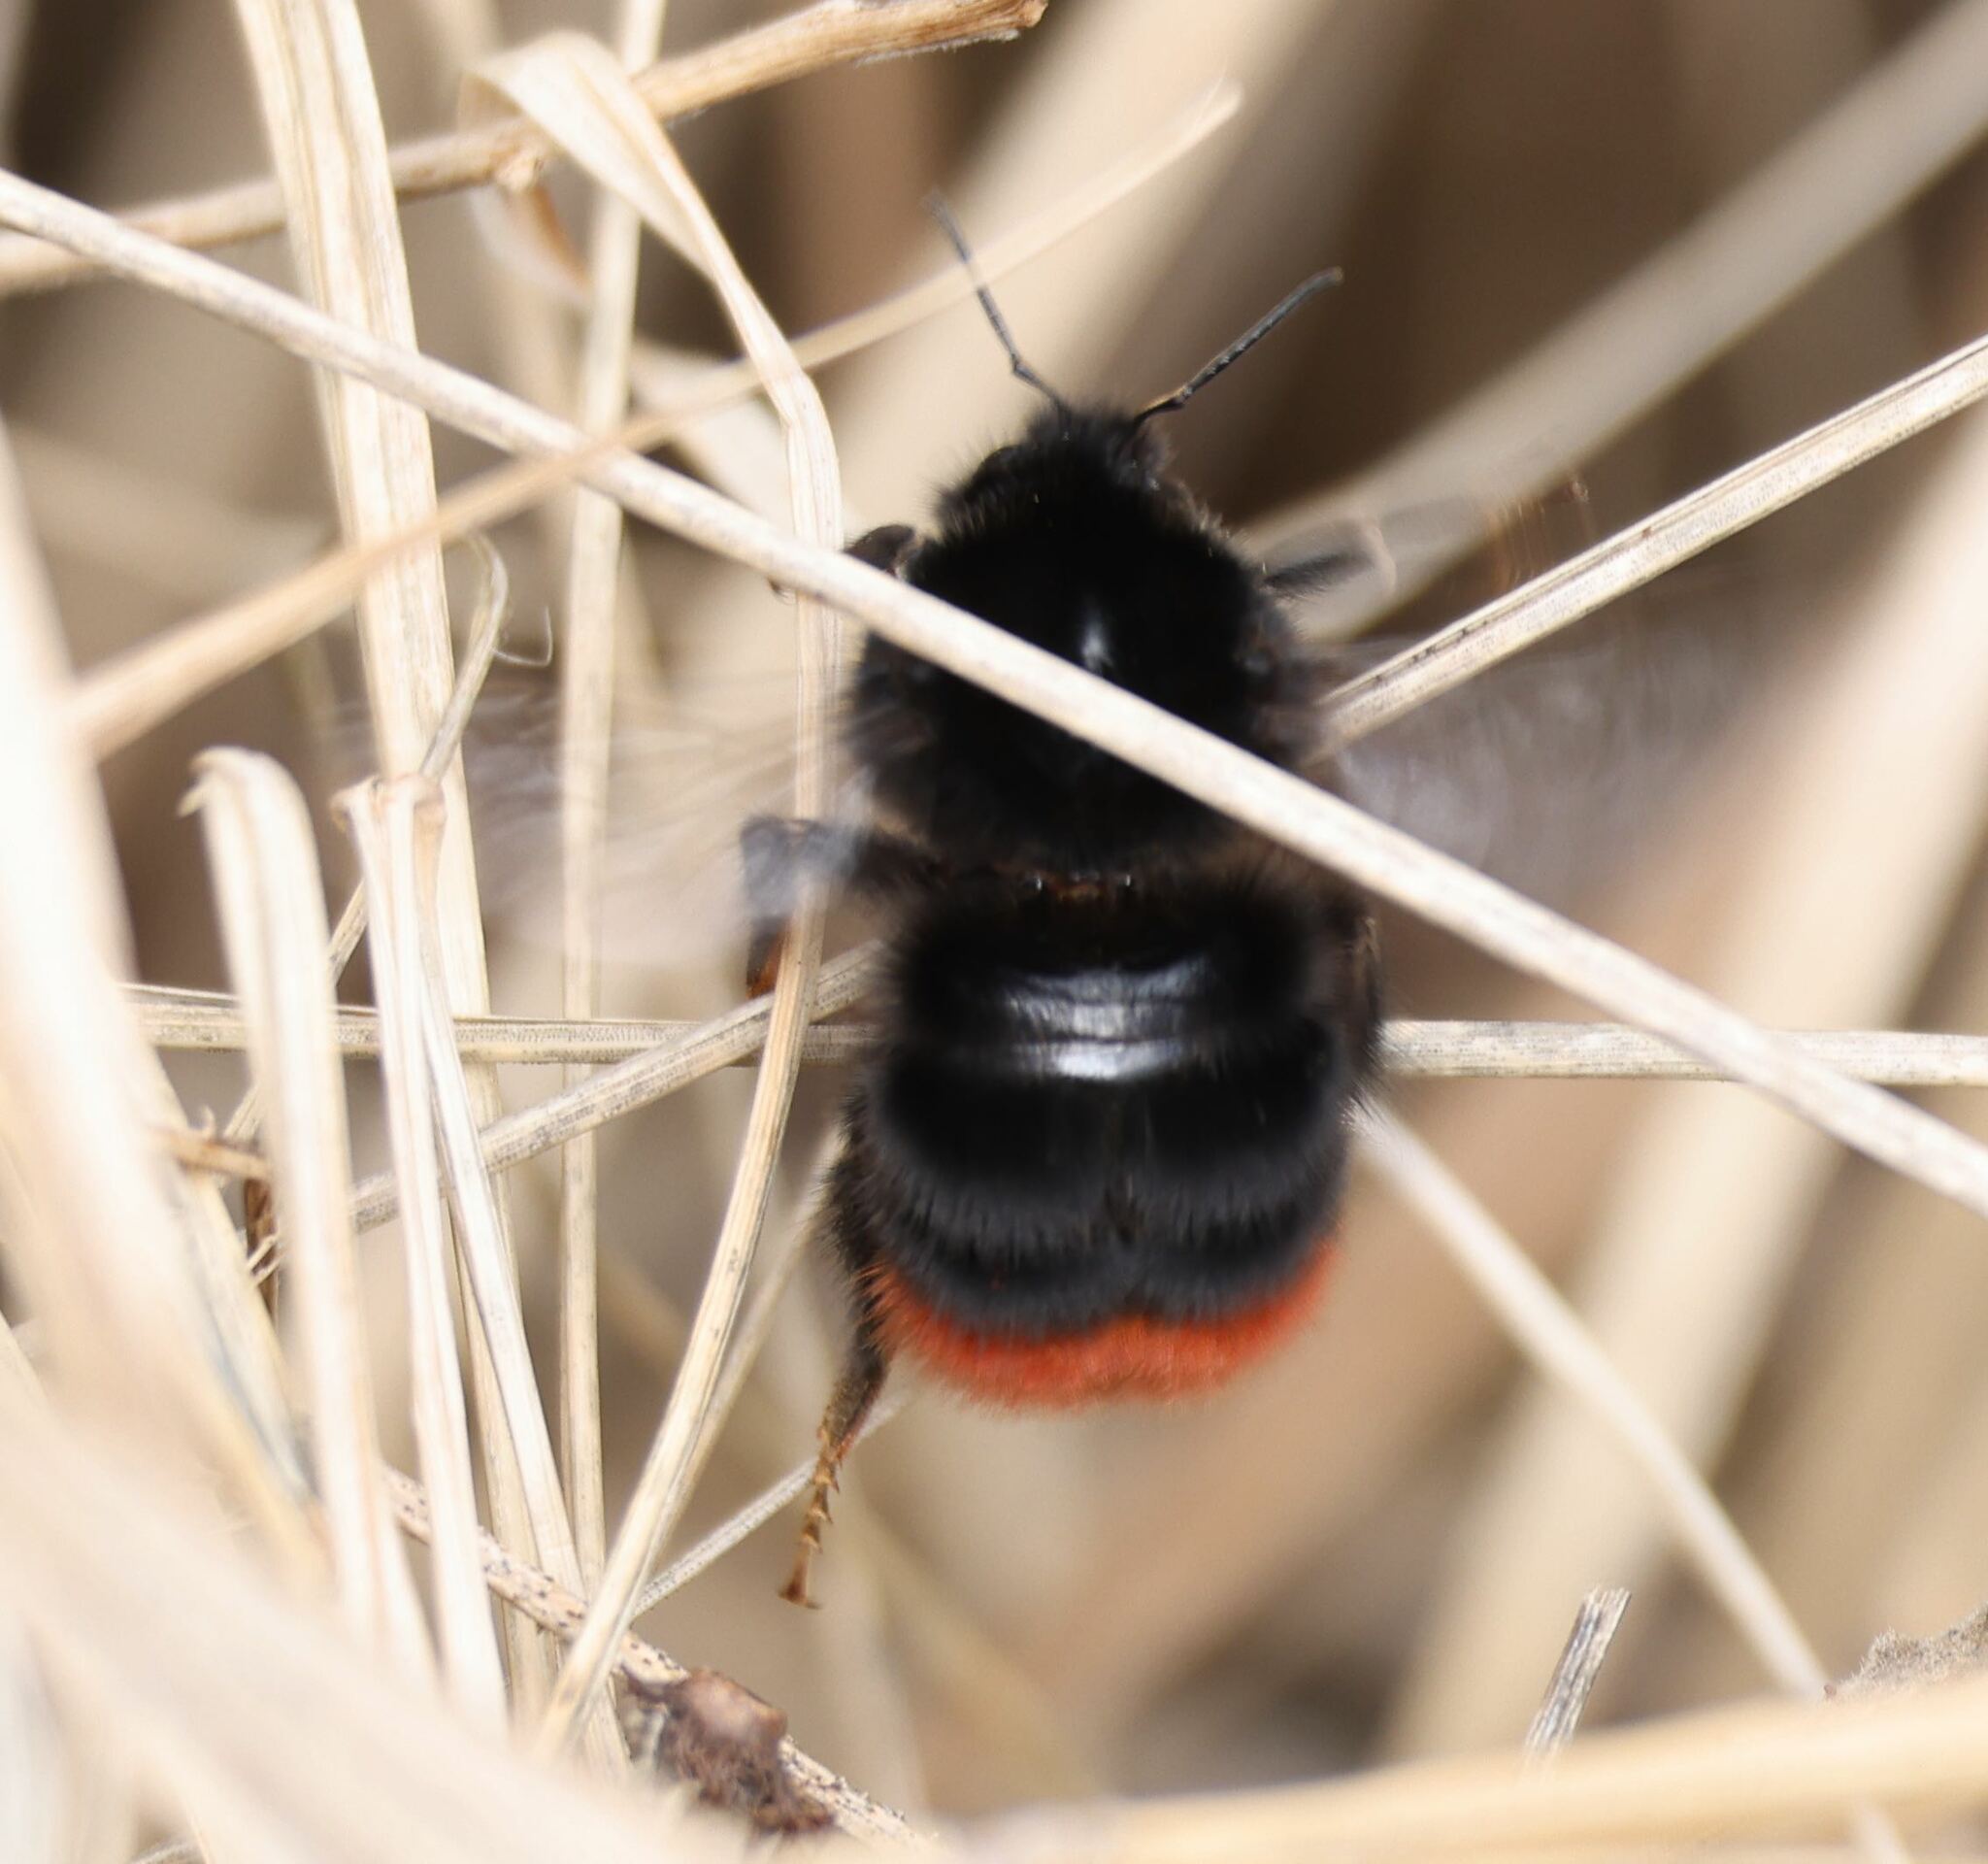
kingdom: Animalia
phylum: Arthropoda
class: Insecta
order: Hymenoptera
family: Apidae
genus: Bombus
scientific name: Bombus lapidarius
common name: Large red-tailed humble-bee
